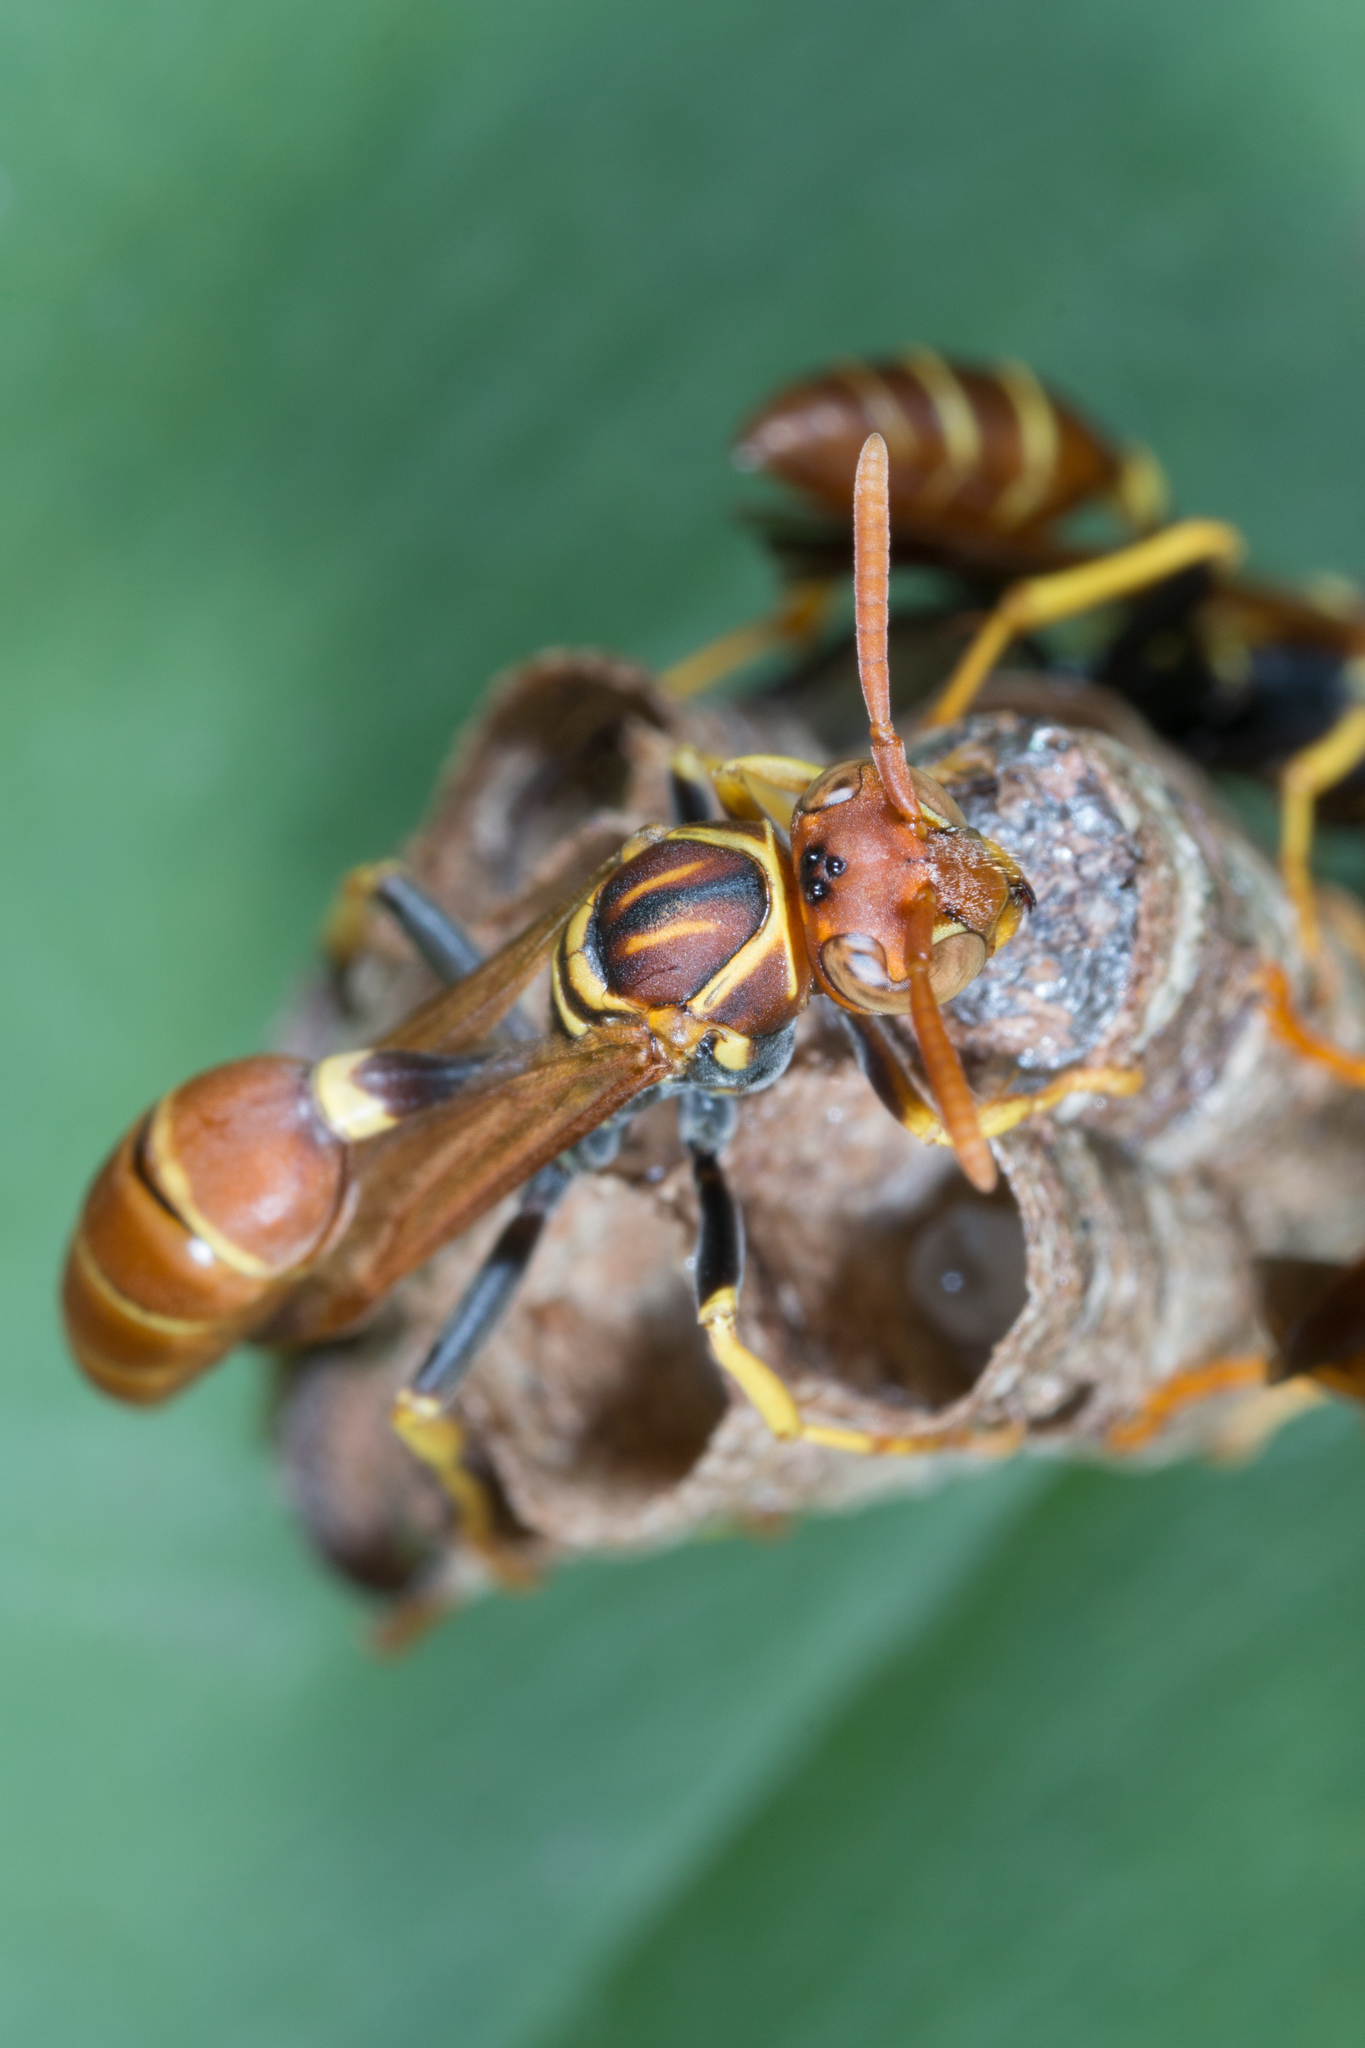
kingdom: Animalia
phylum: Arthropoda
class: Insecta
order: Hymenoptera
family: Vespidae
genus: Mischocyttarus
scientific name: Mischocyttarus phthisicus
